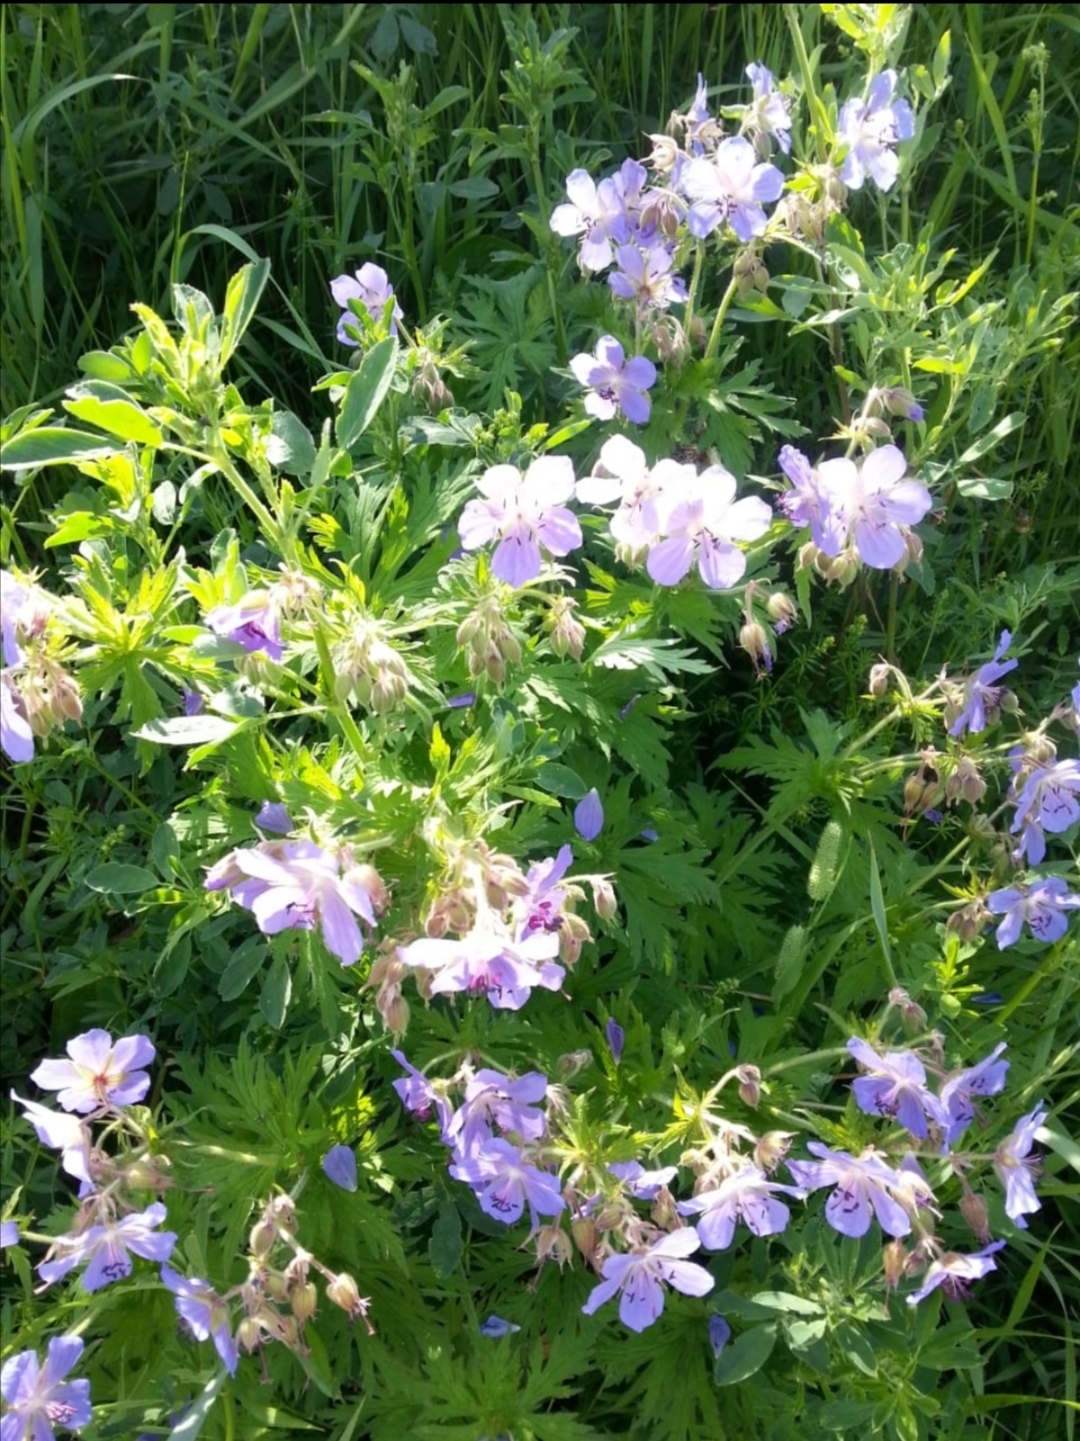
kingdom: Plantae
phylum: Tracheophyta
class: Magnoliopsida
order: Geraniales
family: Geraniaceae
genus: Geranium
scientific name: Geranium pratense
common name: Meadow crane's-bill
